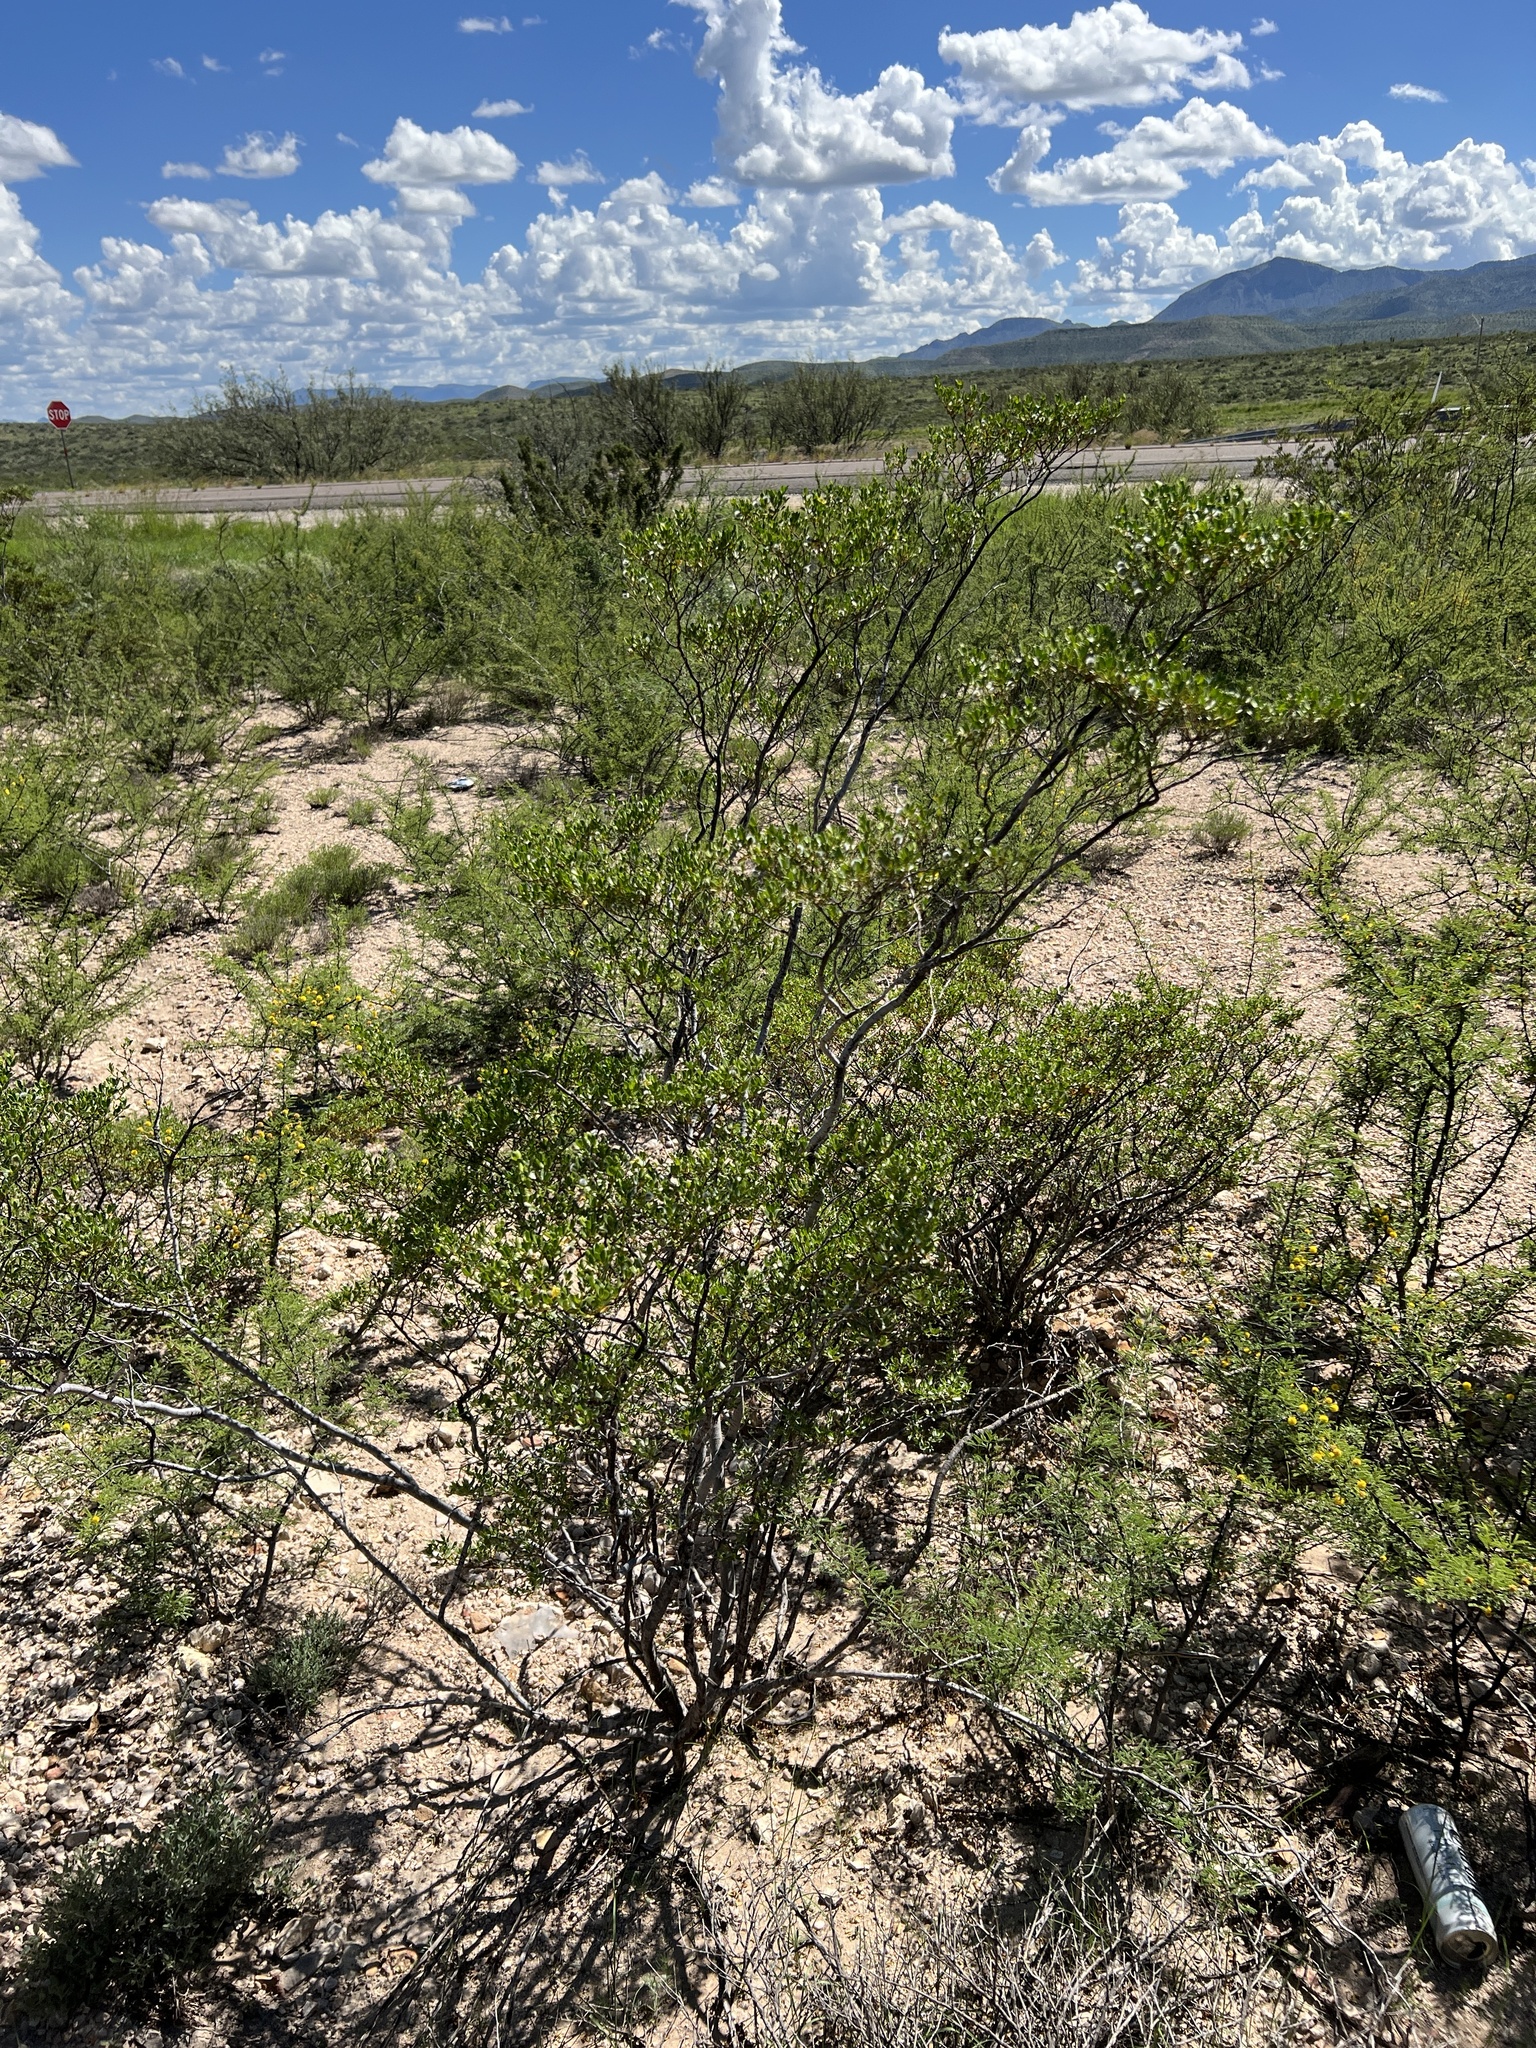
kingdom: Plantae
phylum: Tracheophyta
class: Magnoliopsida
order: Zygophyllales
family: Zygophyllaceae
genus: Larrea
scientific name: Larrea tridentata
